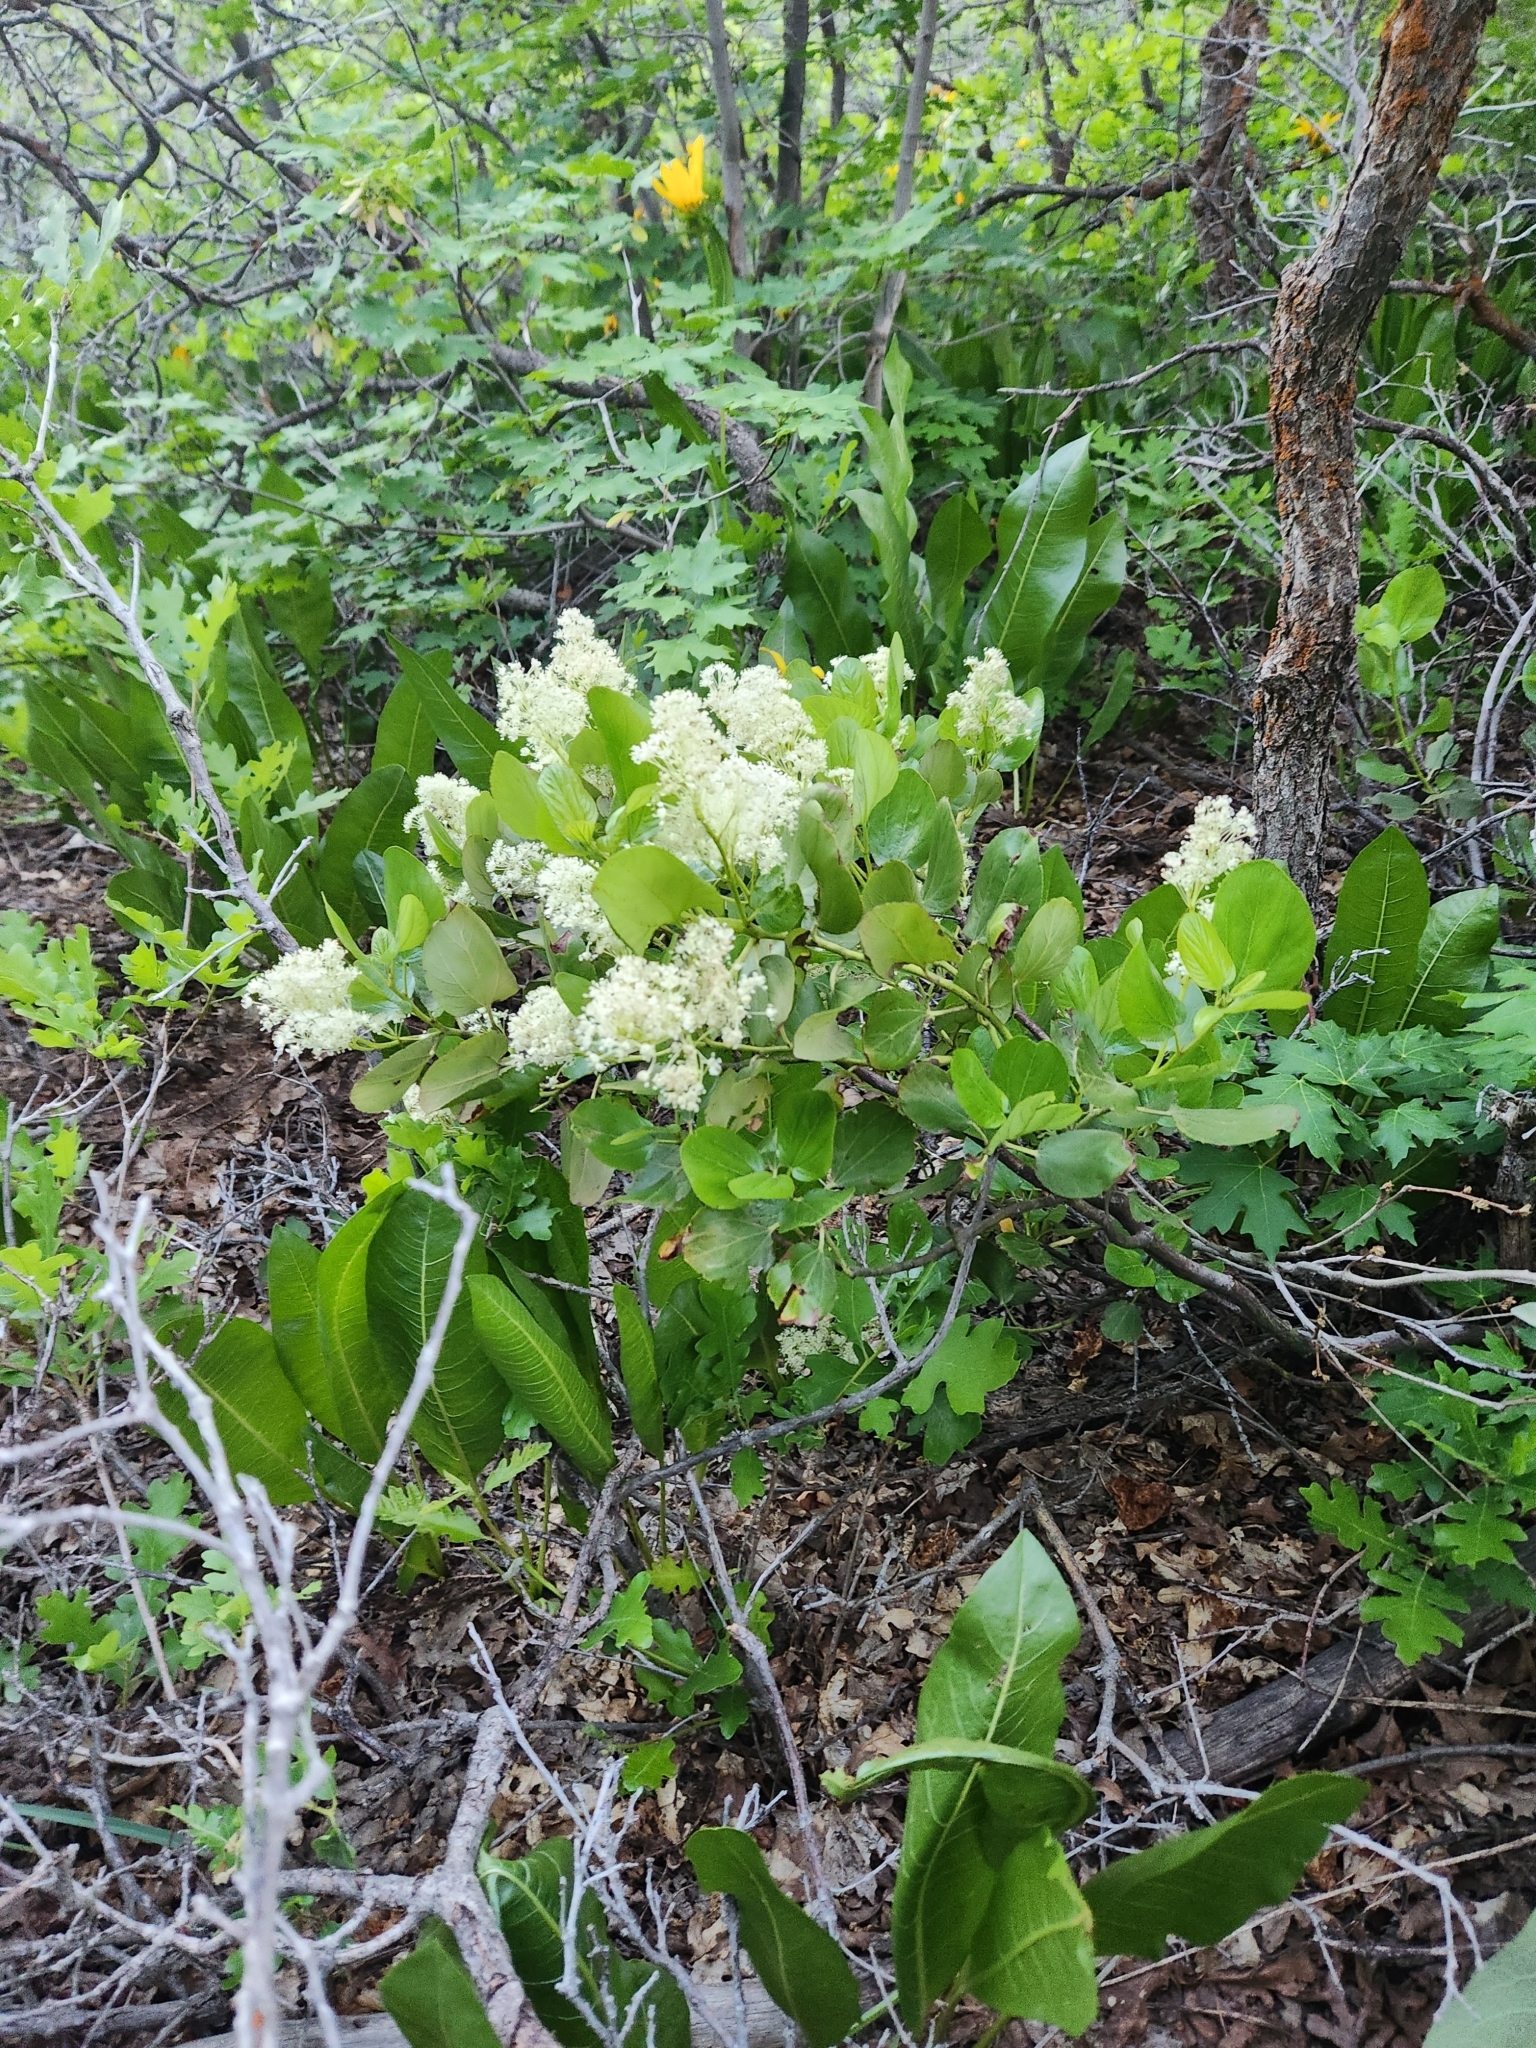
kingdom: Plantae
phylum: Tracheophyta
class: Magnoliopsida
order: Rosales
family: Rhamnaceae
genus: Ceanothus
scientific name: Ceanothus velutinus
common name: Snowbrush
